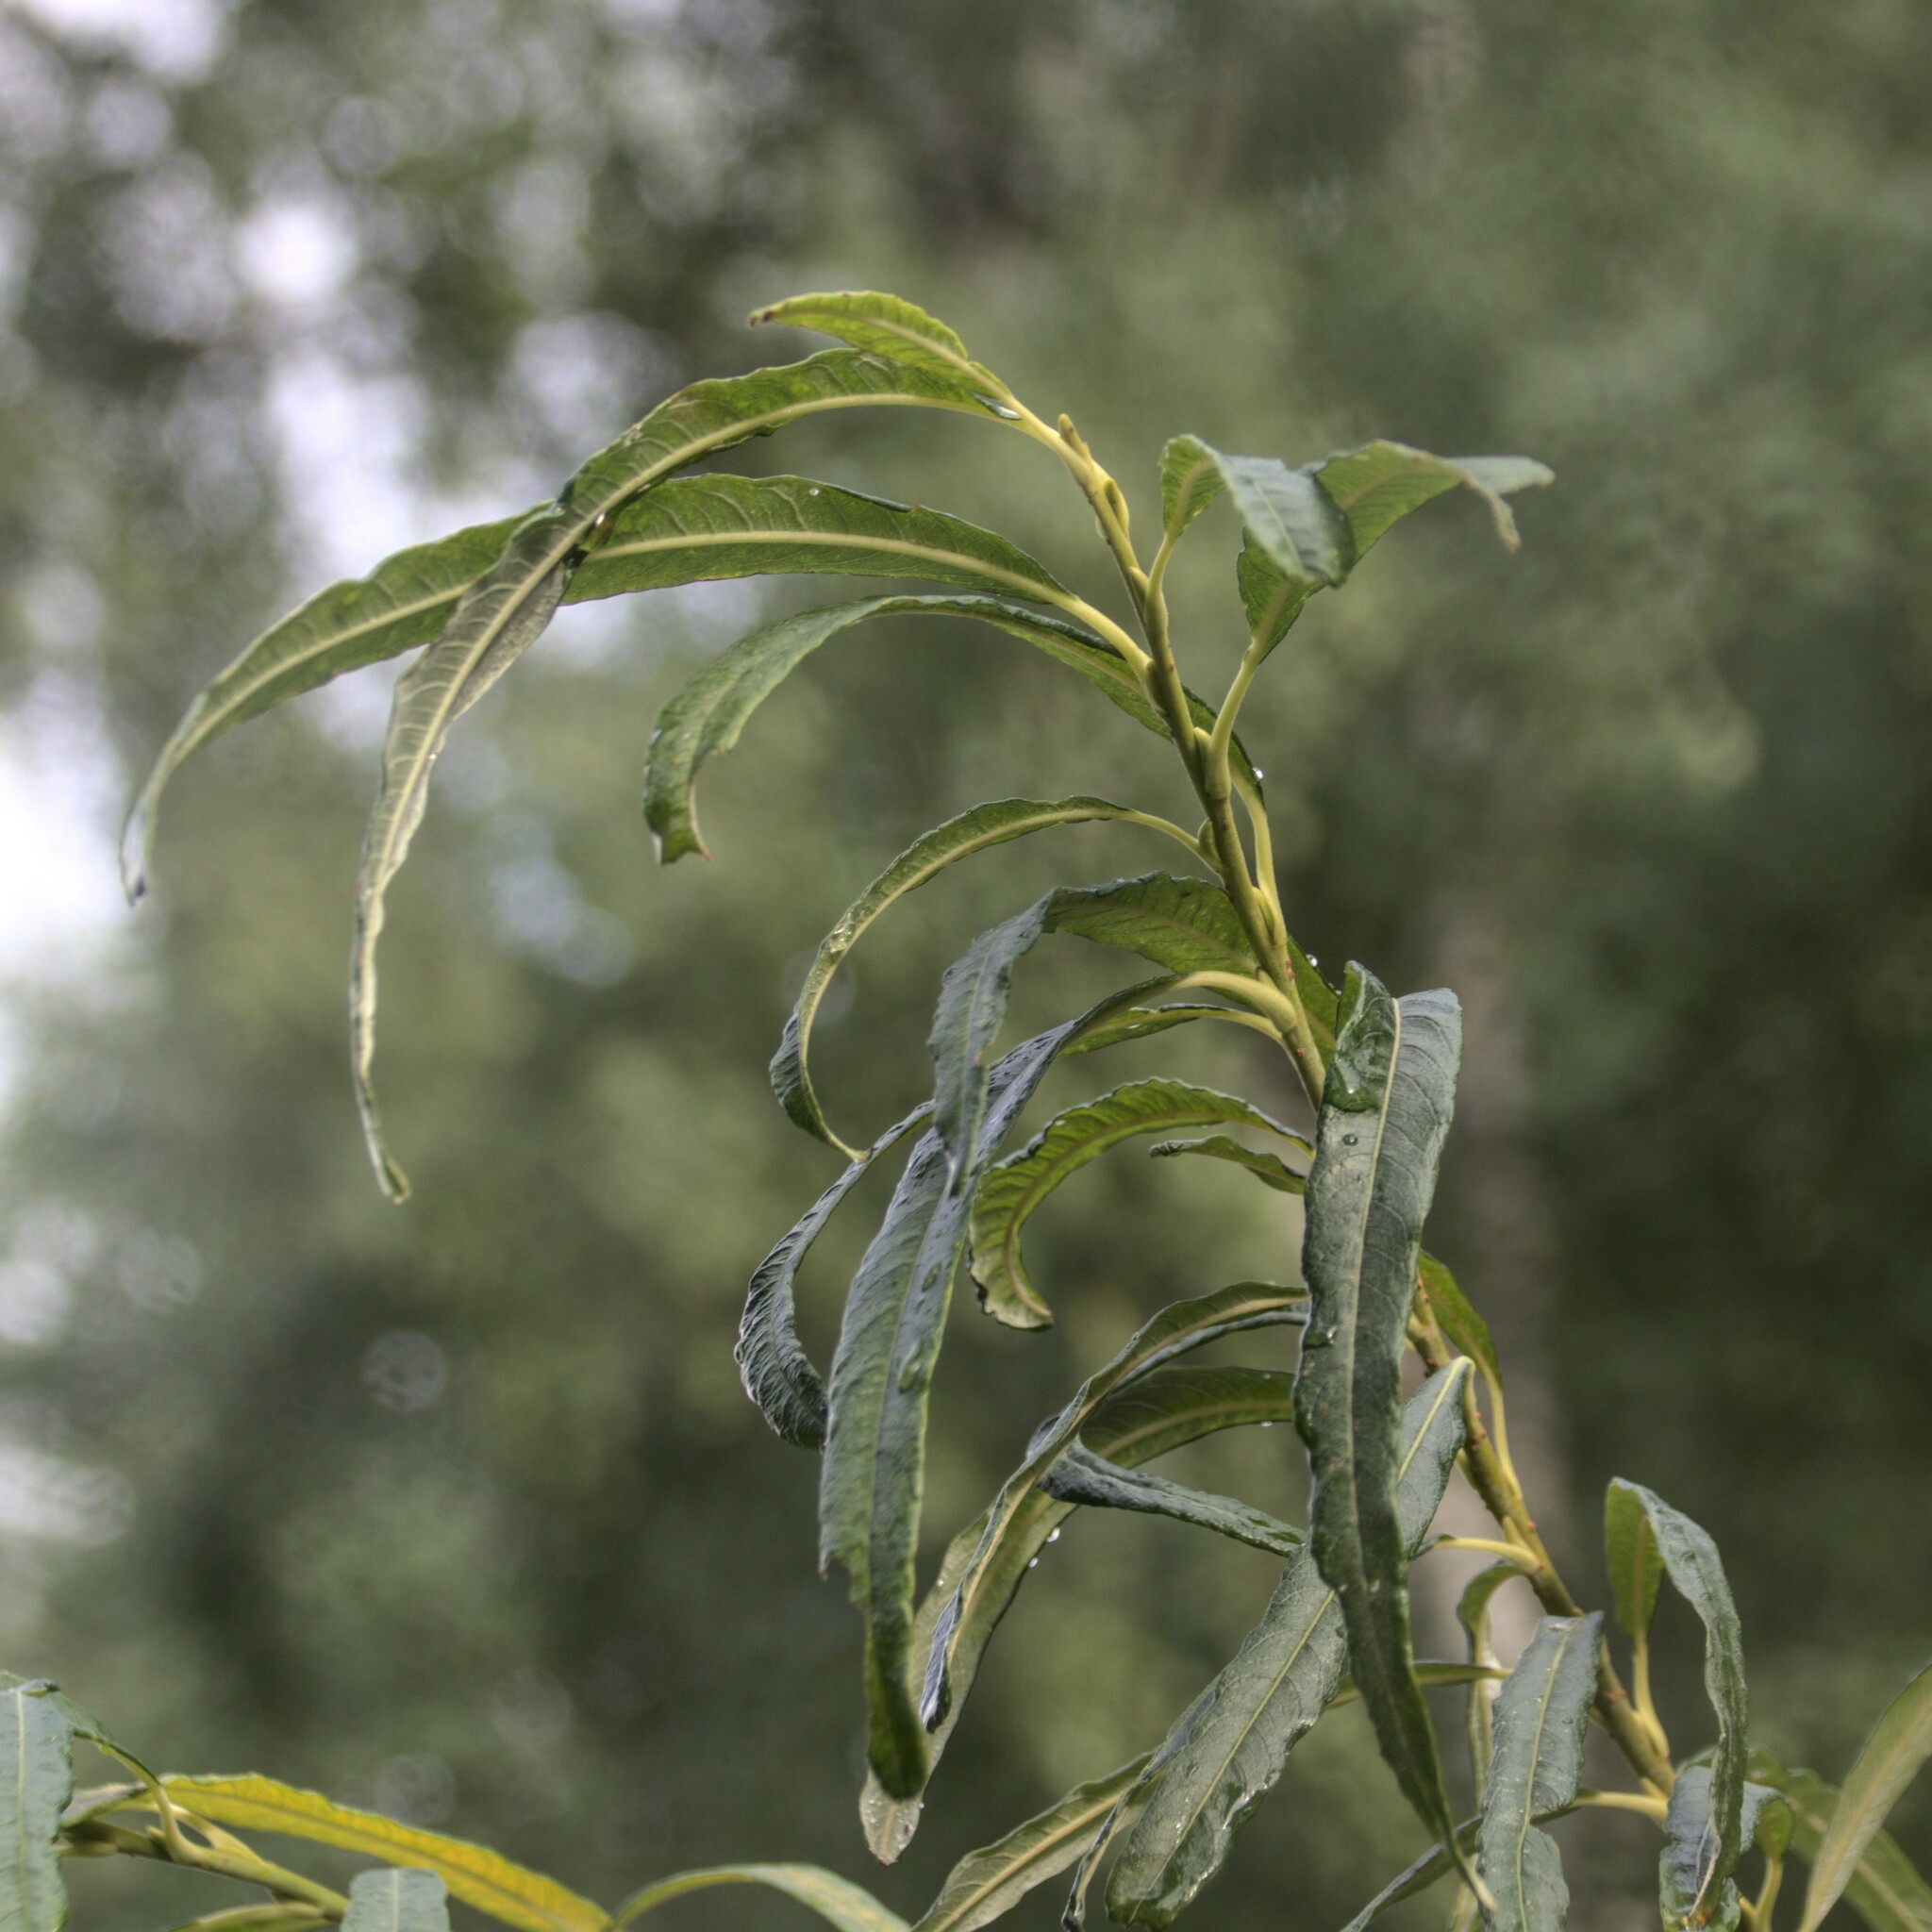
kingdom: Plantae
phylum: Tracheophyta
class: Magnoliopsida
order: Malpighiales
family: Salicaceae
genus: Salix
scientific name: Salix viminalis
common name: Osier
